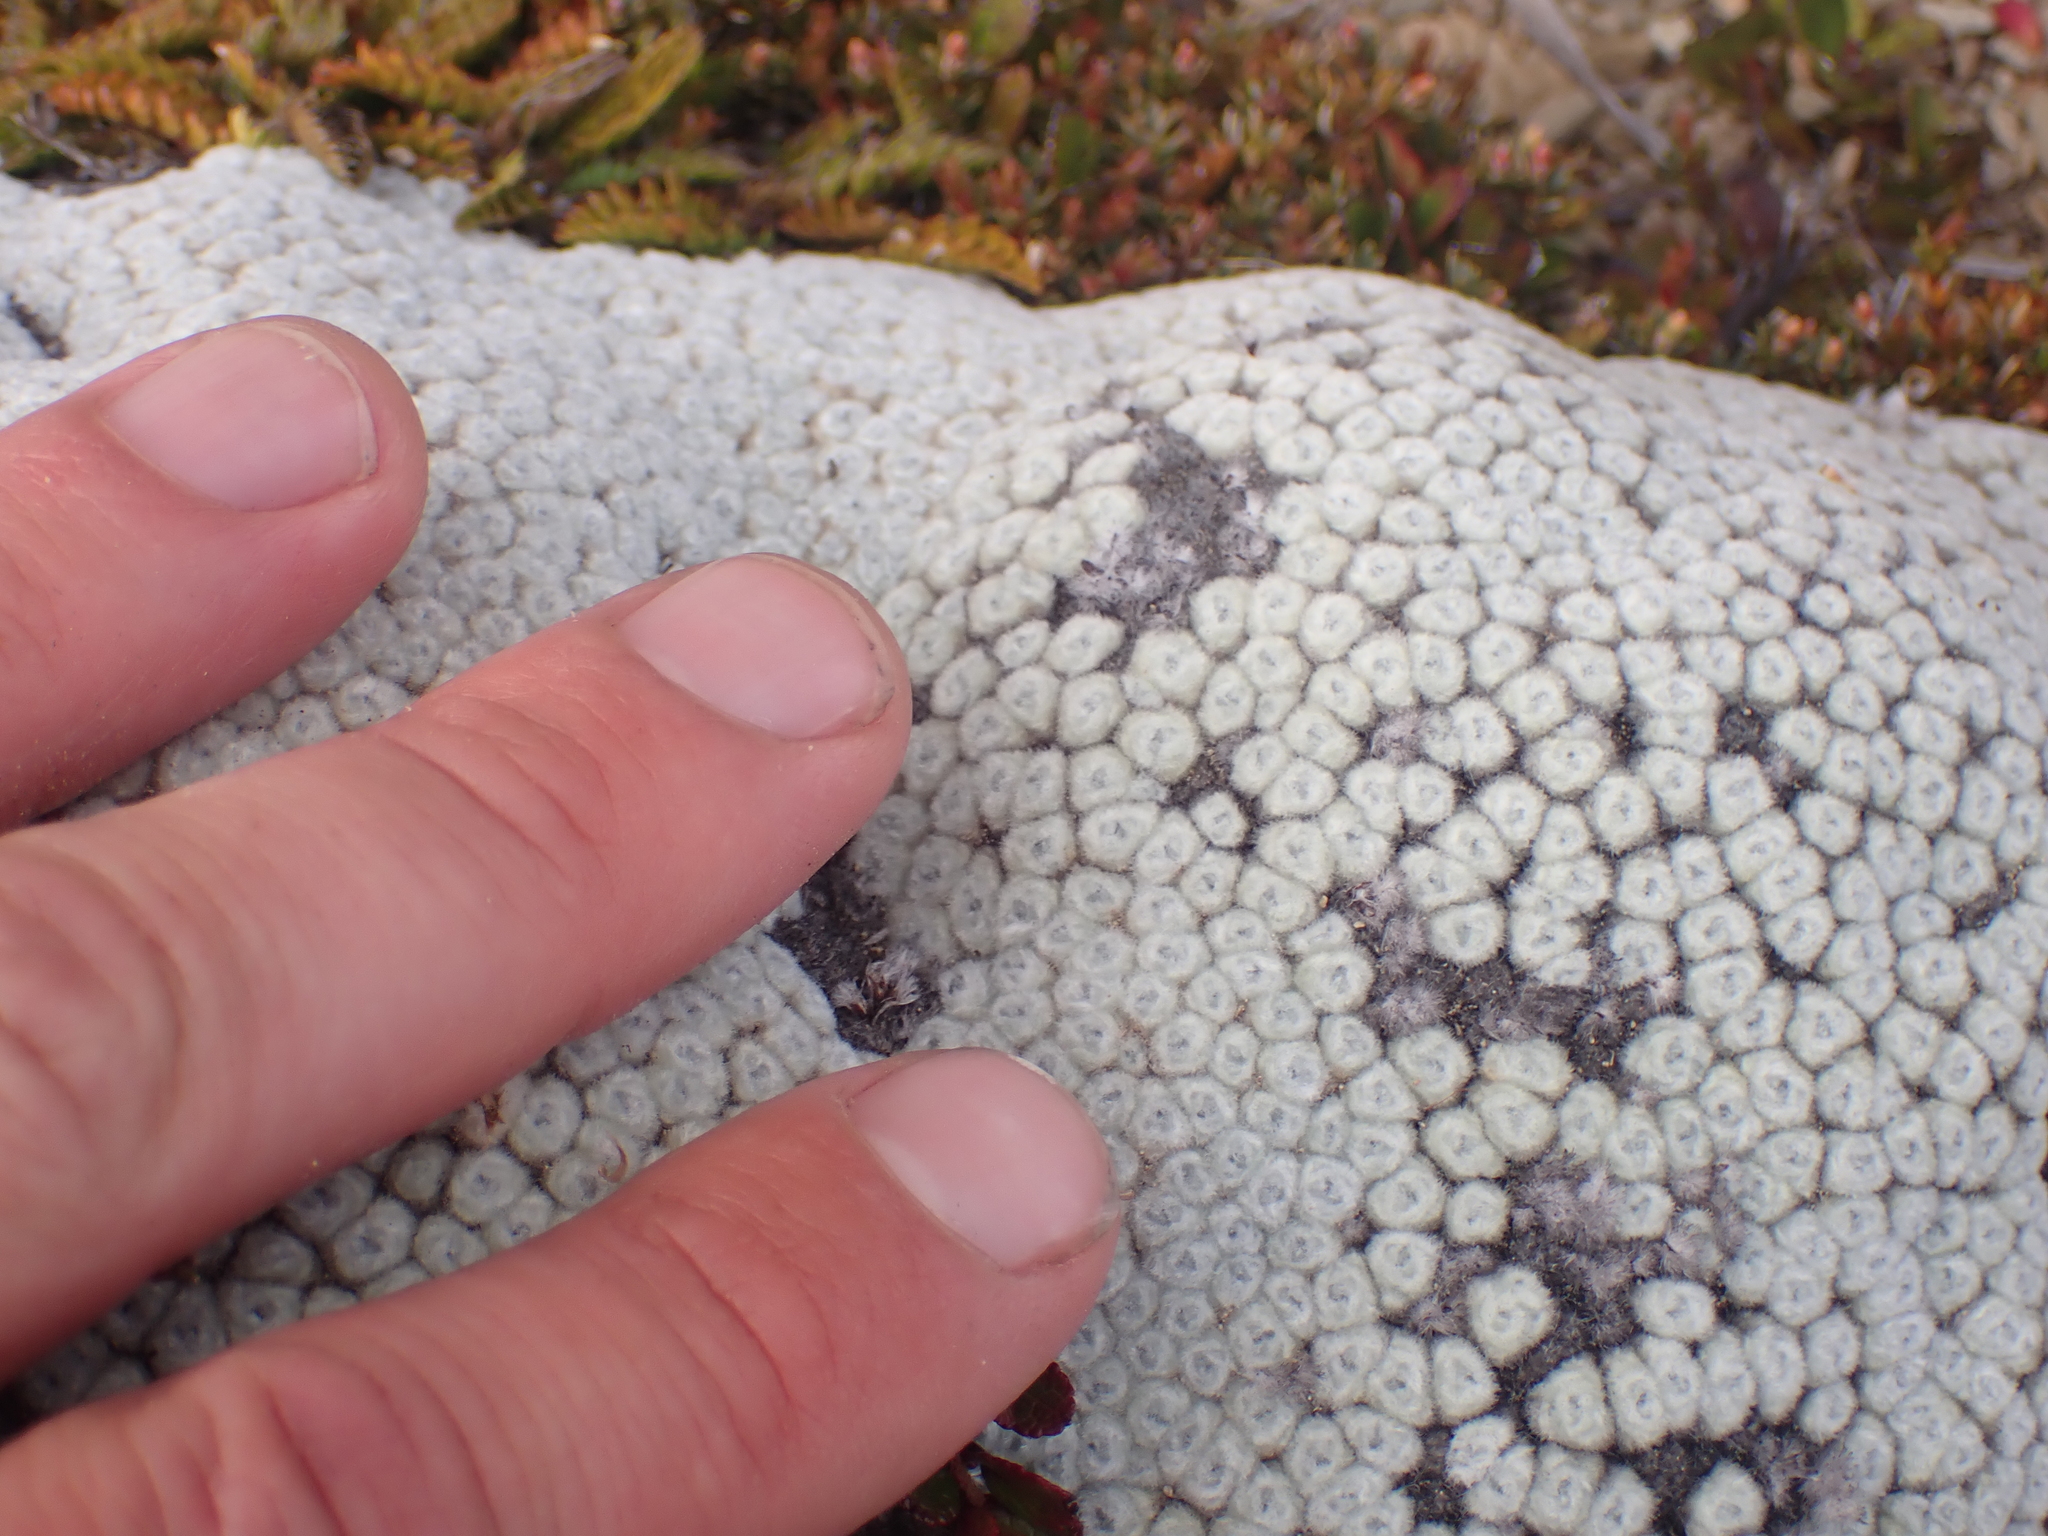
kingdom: Plantae
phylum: Tracheophyta
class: Magnoliopsida
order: Asterales
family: Asteraceae
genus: Raoulia
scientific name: Raoulia eximia
